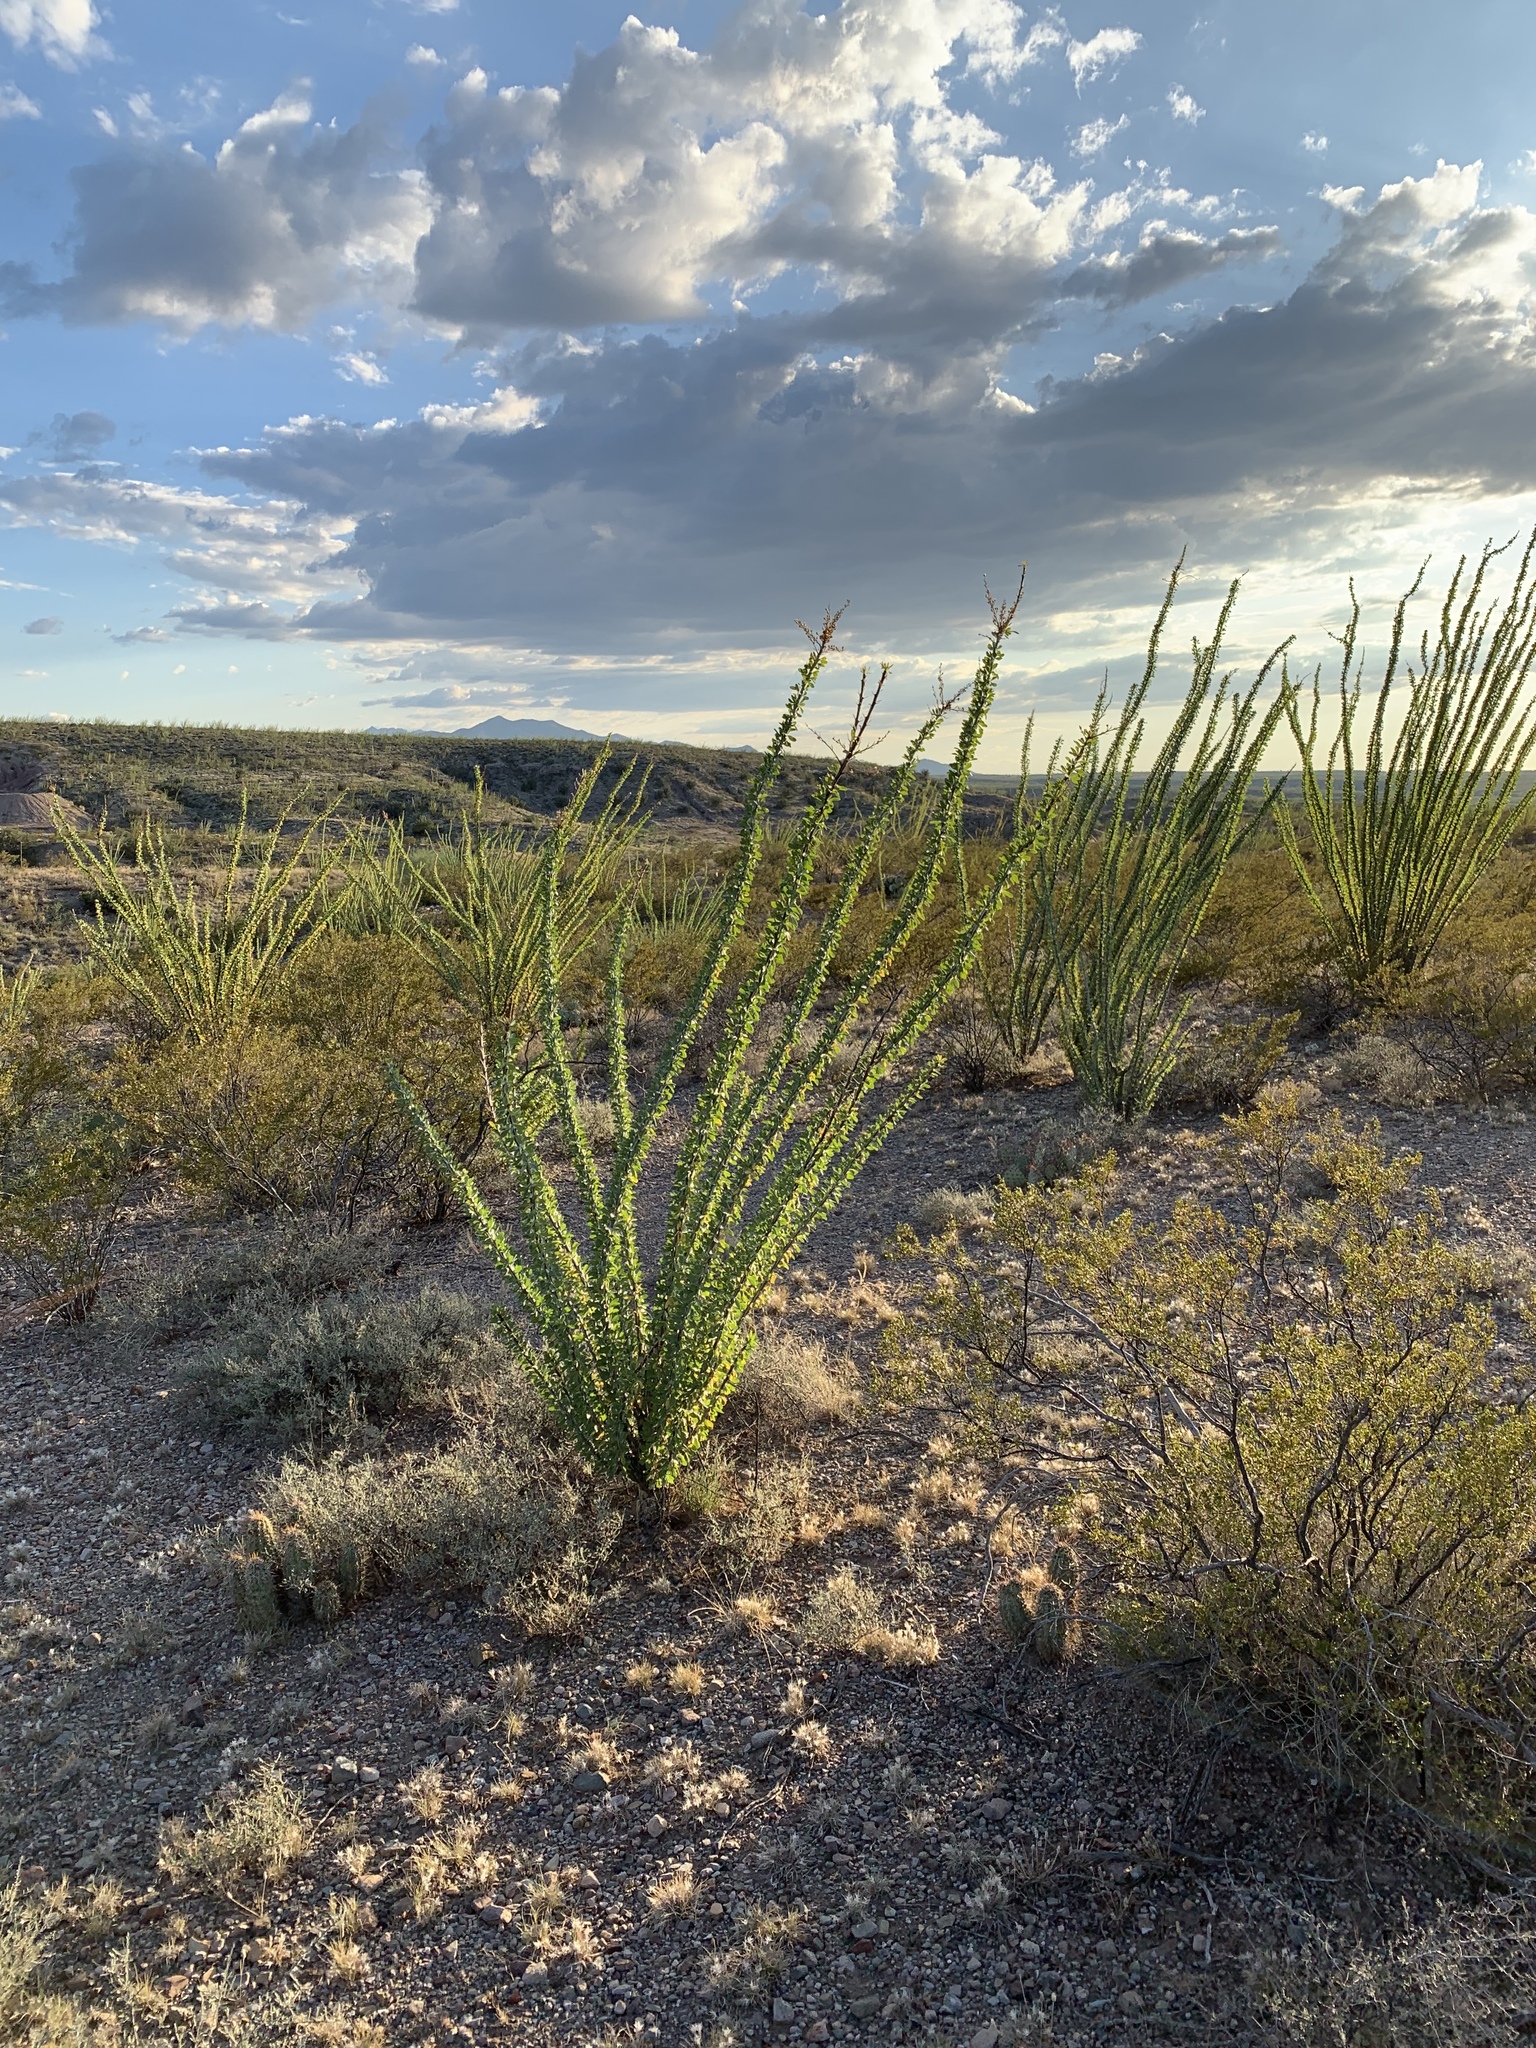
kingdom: Plantae
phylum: Tracheophyta
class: Magnoliopsida
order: Ericales
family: Fouquieriaceae
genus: Fouquieria
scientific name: Fouquieria splendens
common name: Vine-cactus
